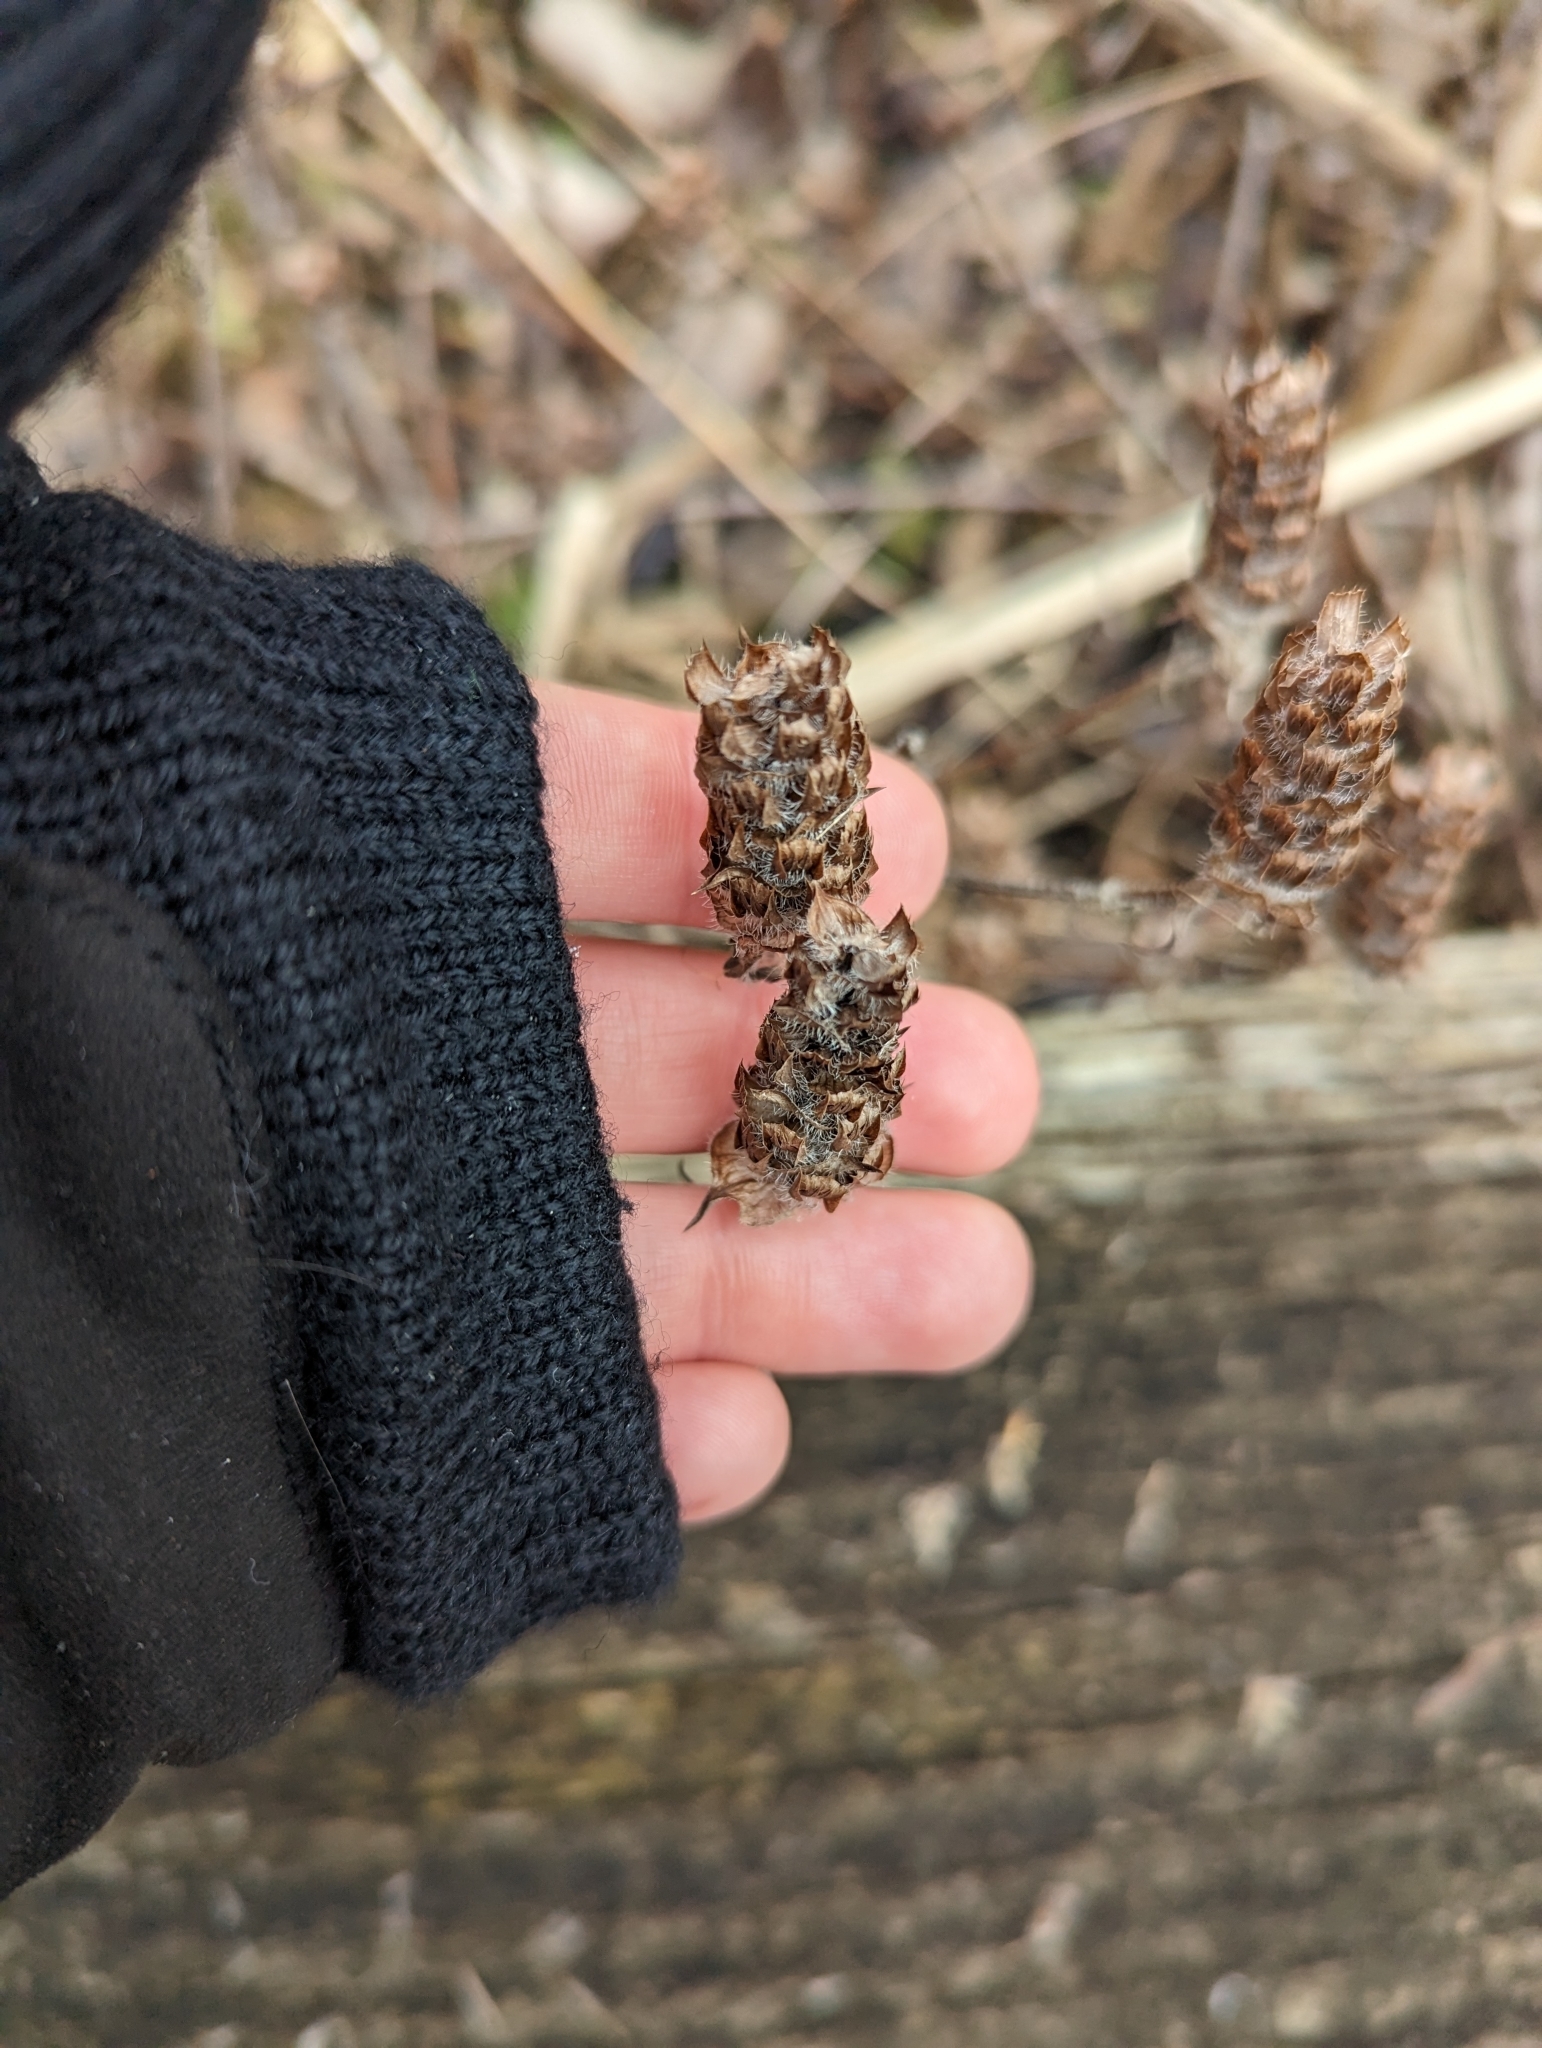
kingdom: Plantae
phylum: Tracheophyta
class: Magnoliopsida
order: Lamiales
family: Lamiaceae
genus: Prunella
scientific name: Prunella vulgaris
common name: Heal-all
